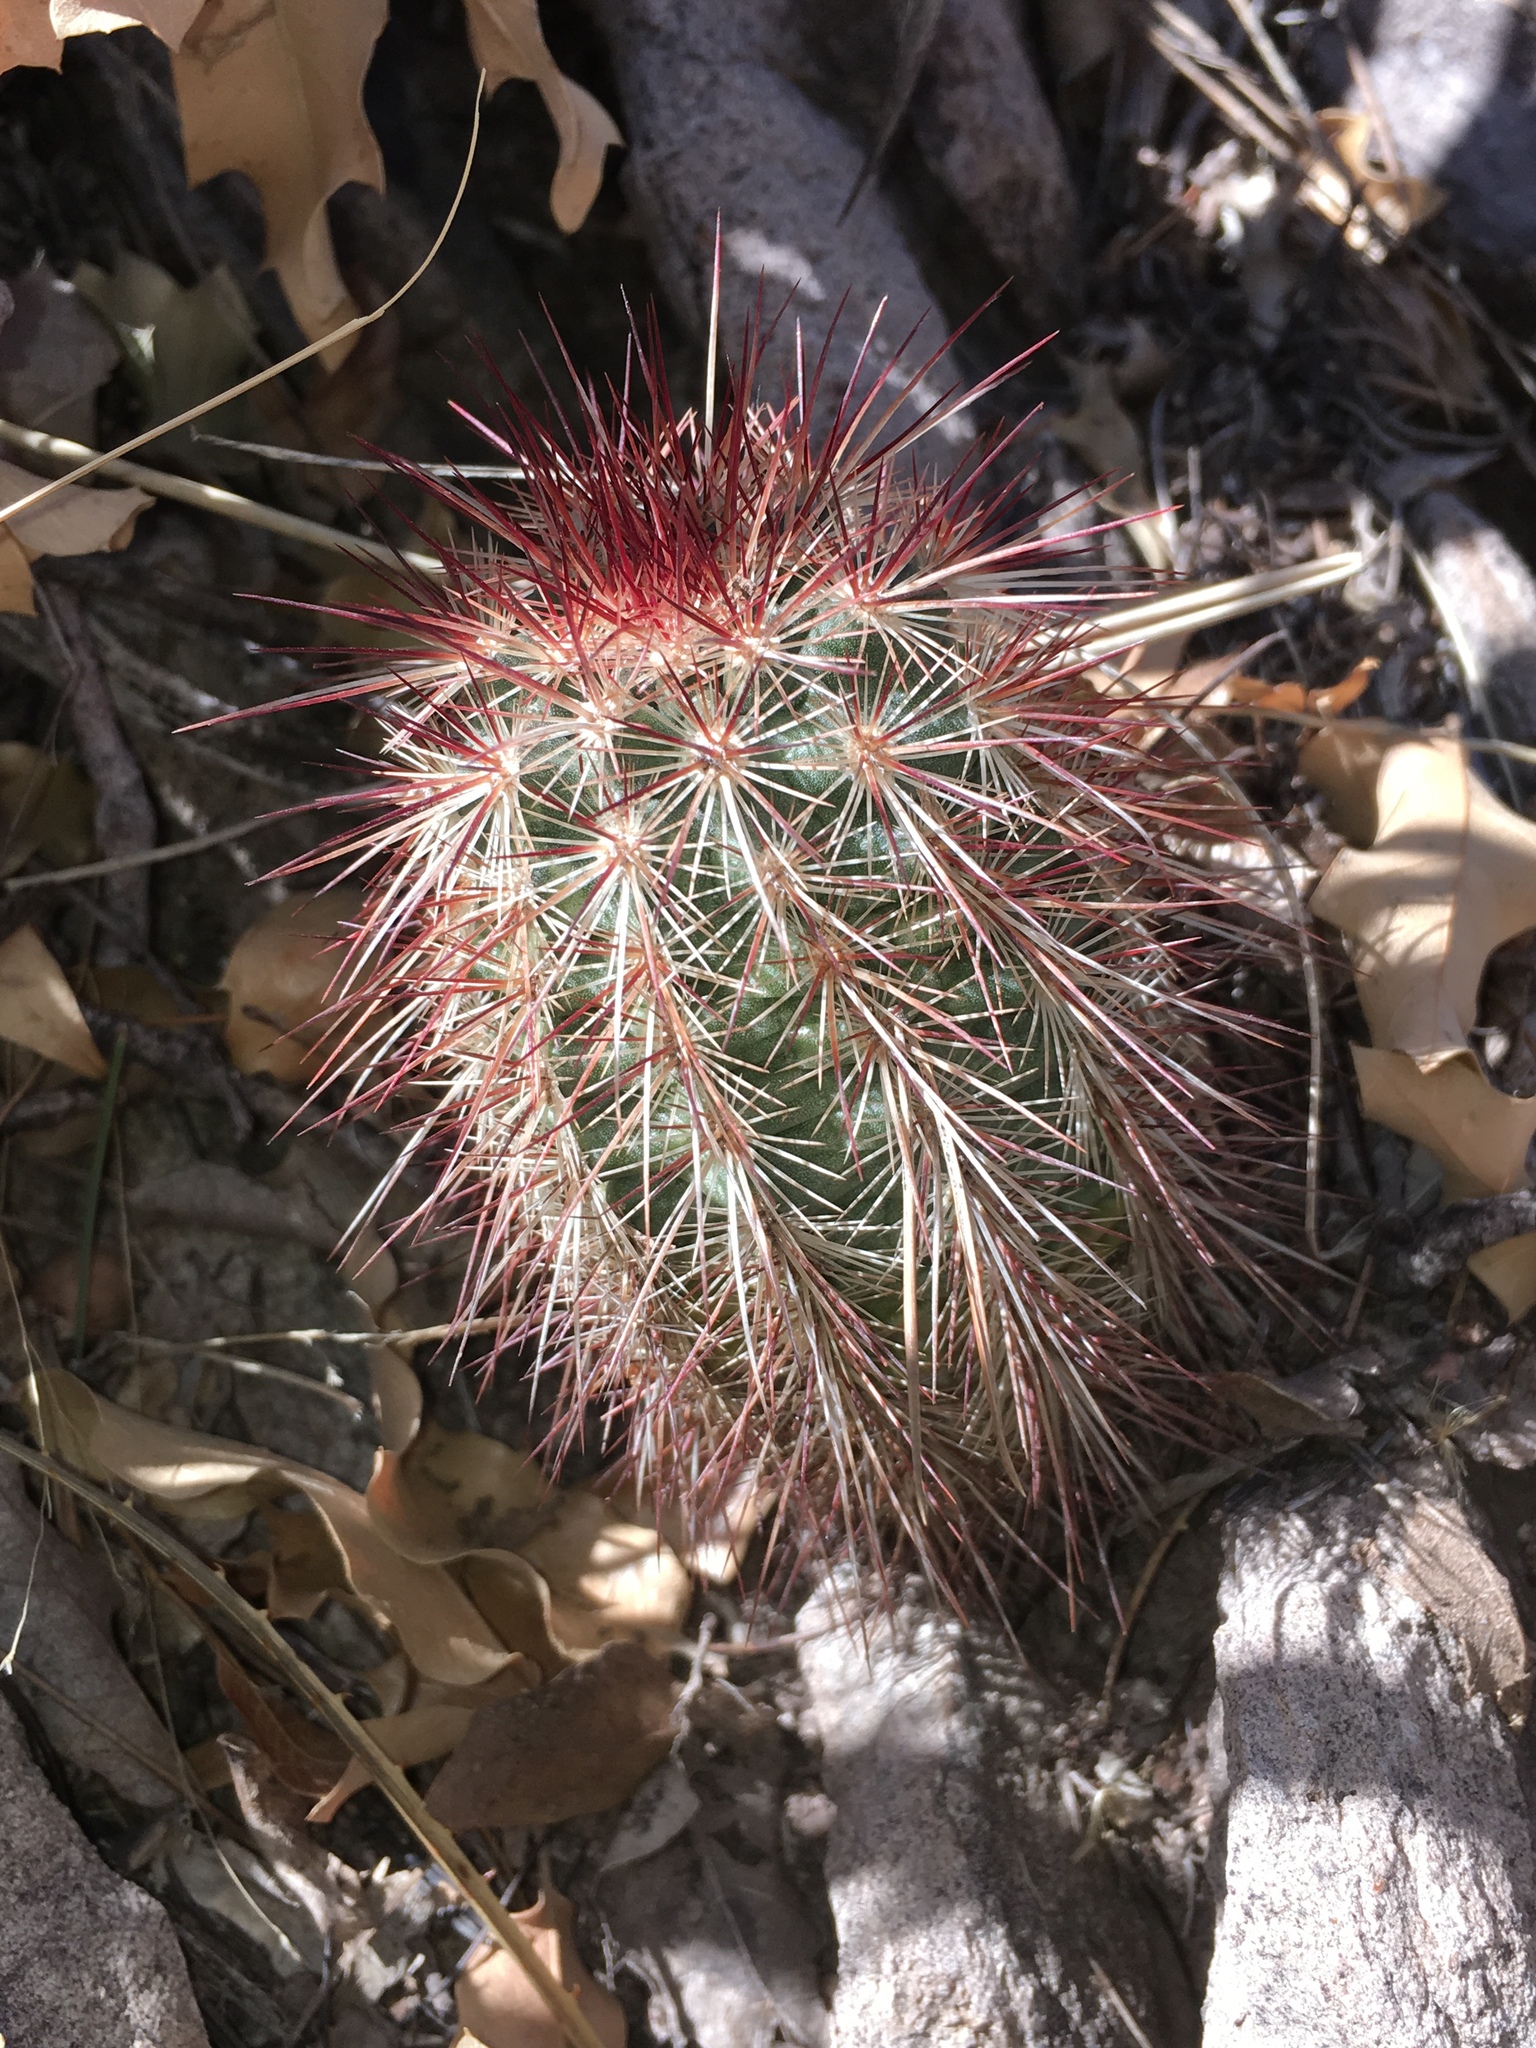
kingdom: Plantae
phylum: Tracheophyta
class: Magnoliopsida
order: Caryophyllales
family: Cactaceae
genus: Echinocereus
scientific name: Echinocereus russanthus
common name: Brownspine hedgehog cactus
